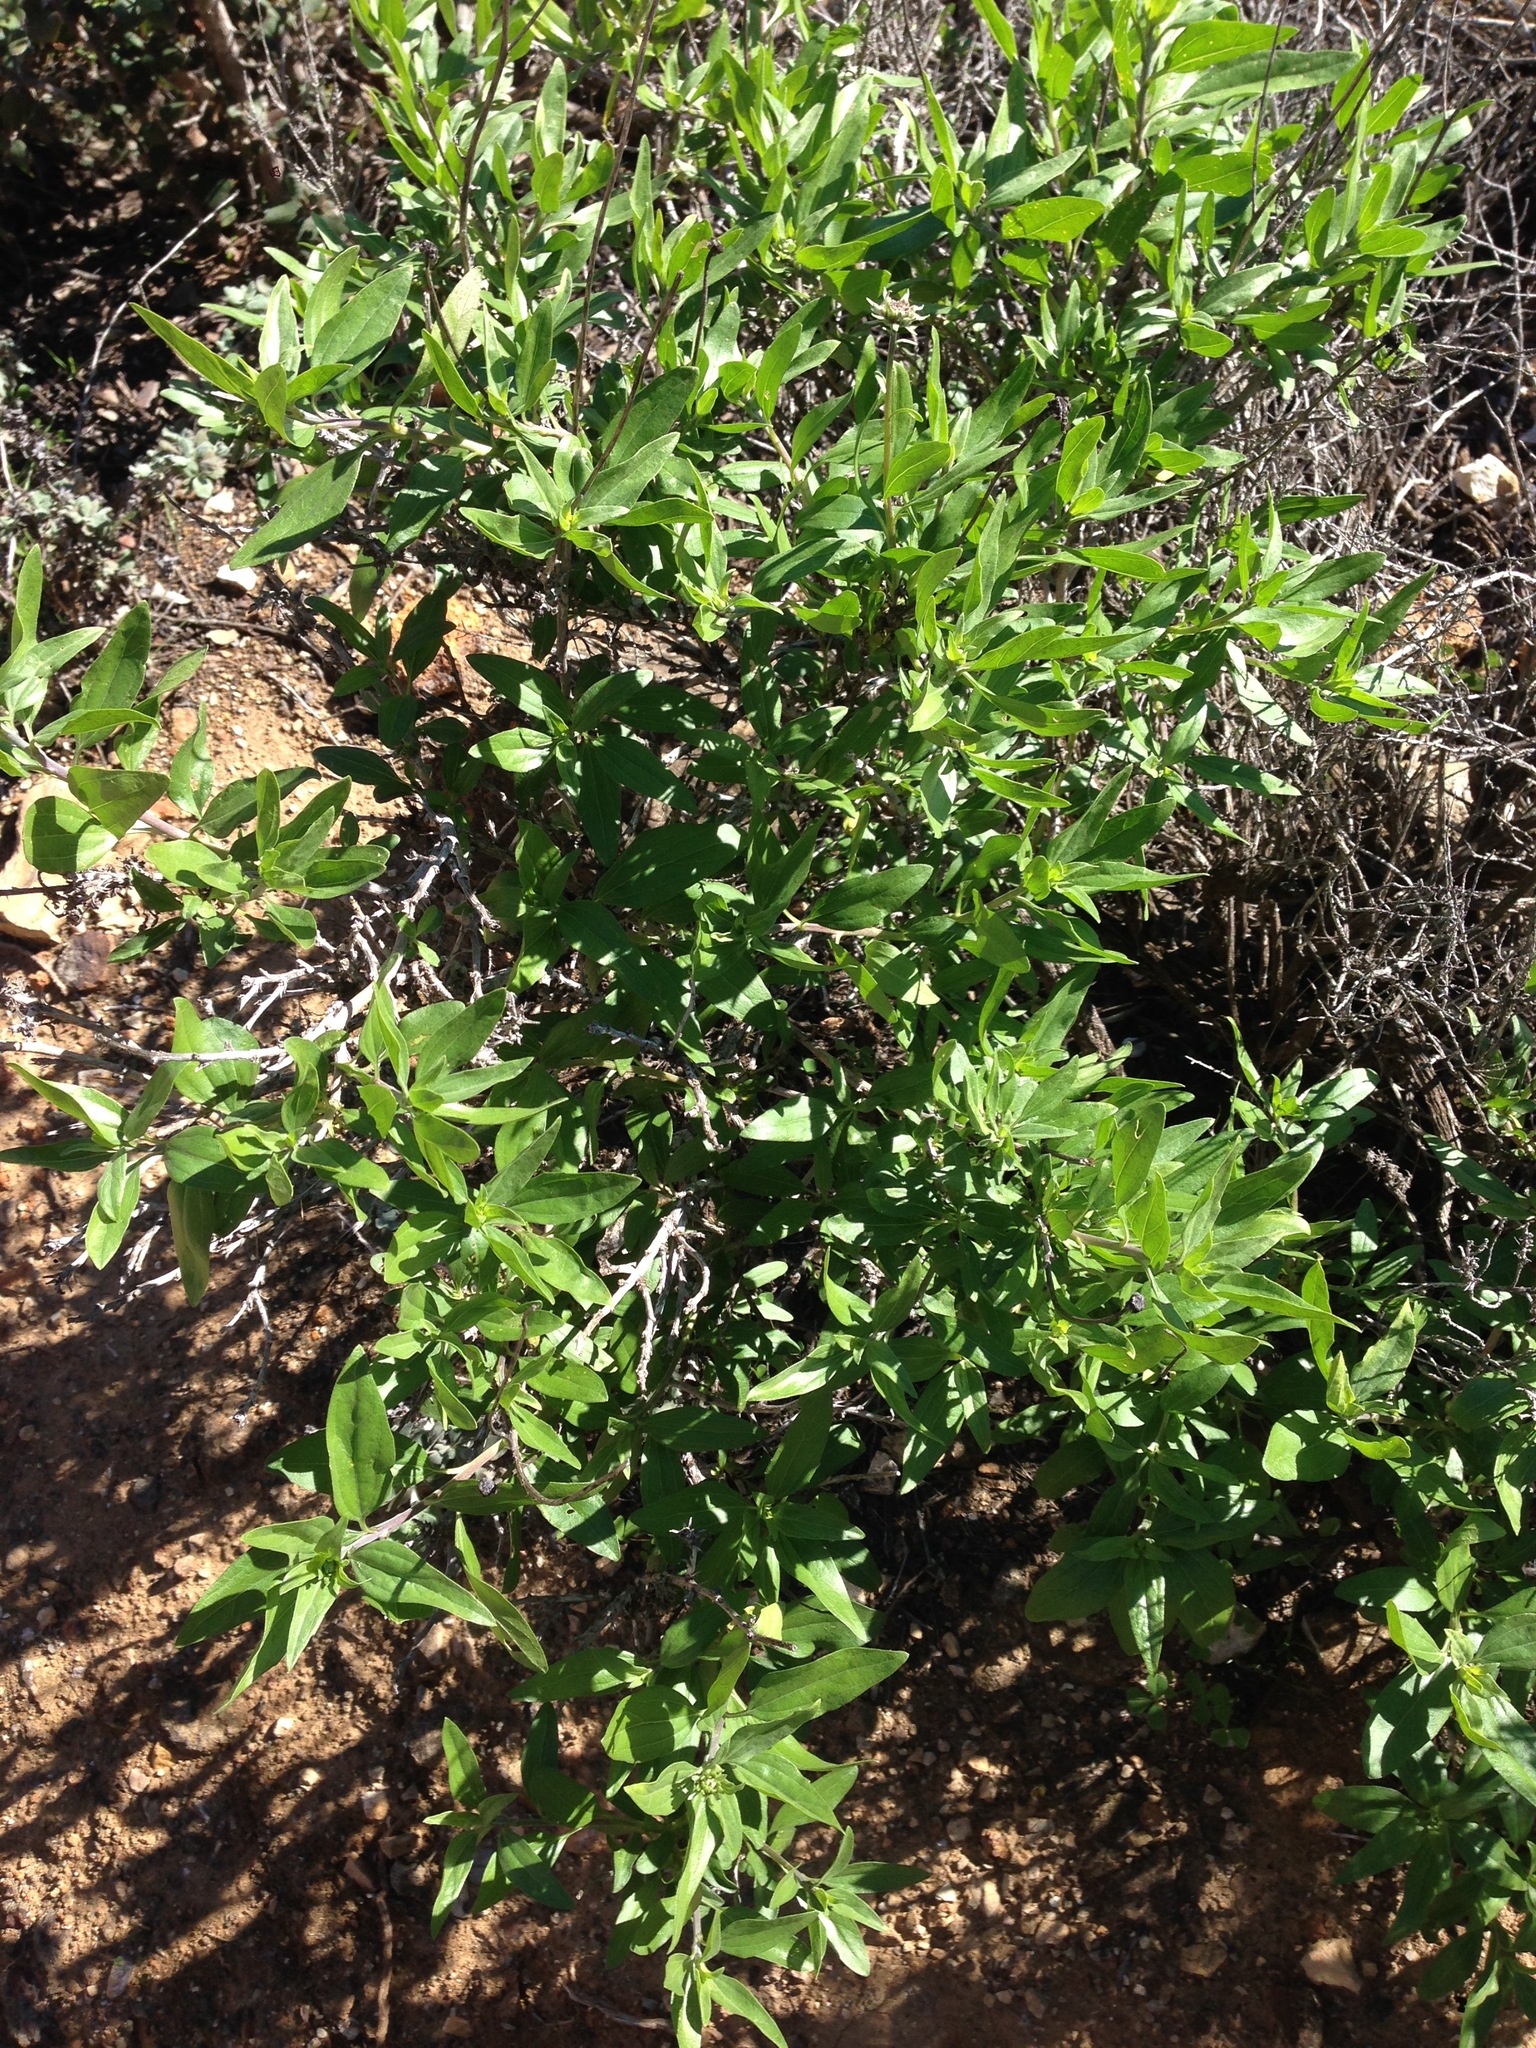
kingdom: Plantae
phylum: Tracheophyta
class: Magnoliopsida
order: Asterales
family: Asteraceae
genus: Encelia
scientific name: Encelia californica
